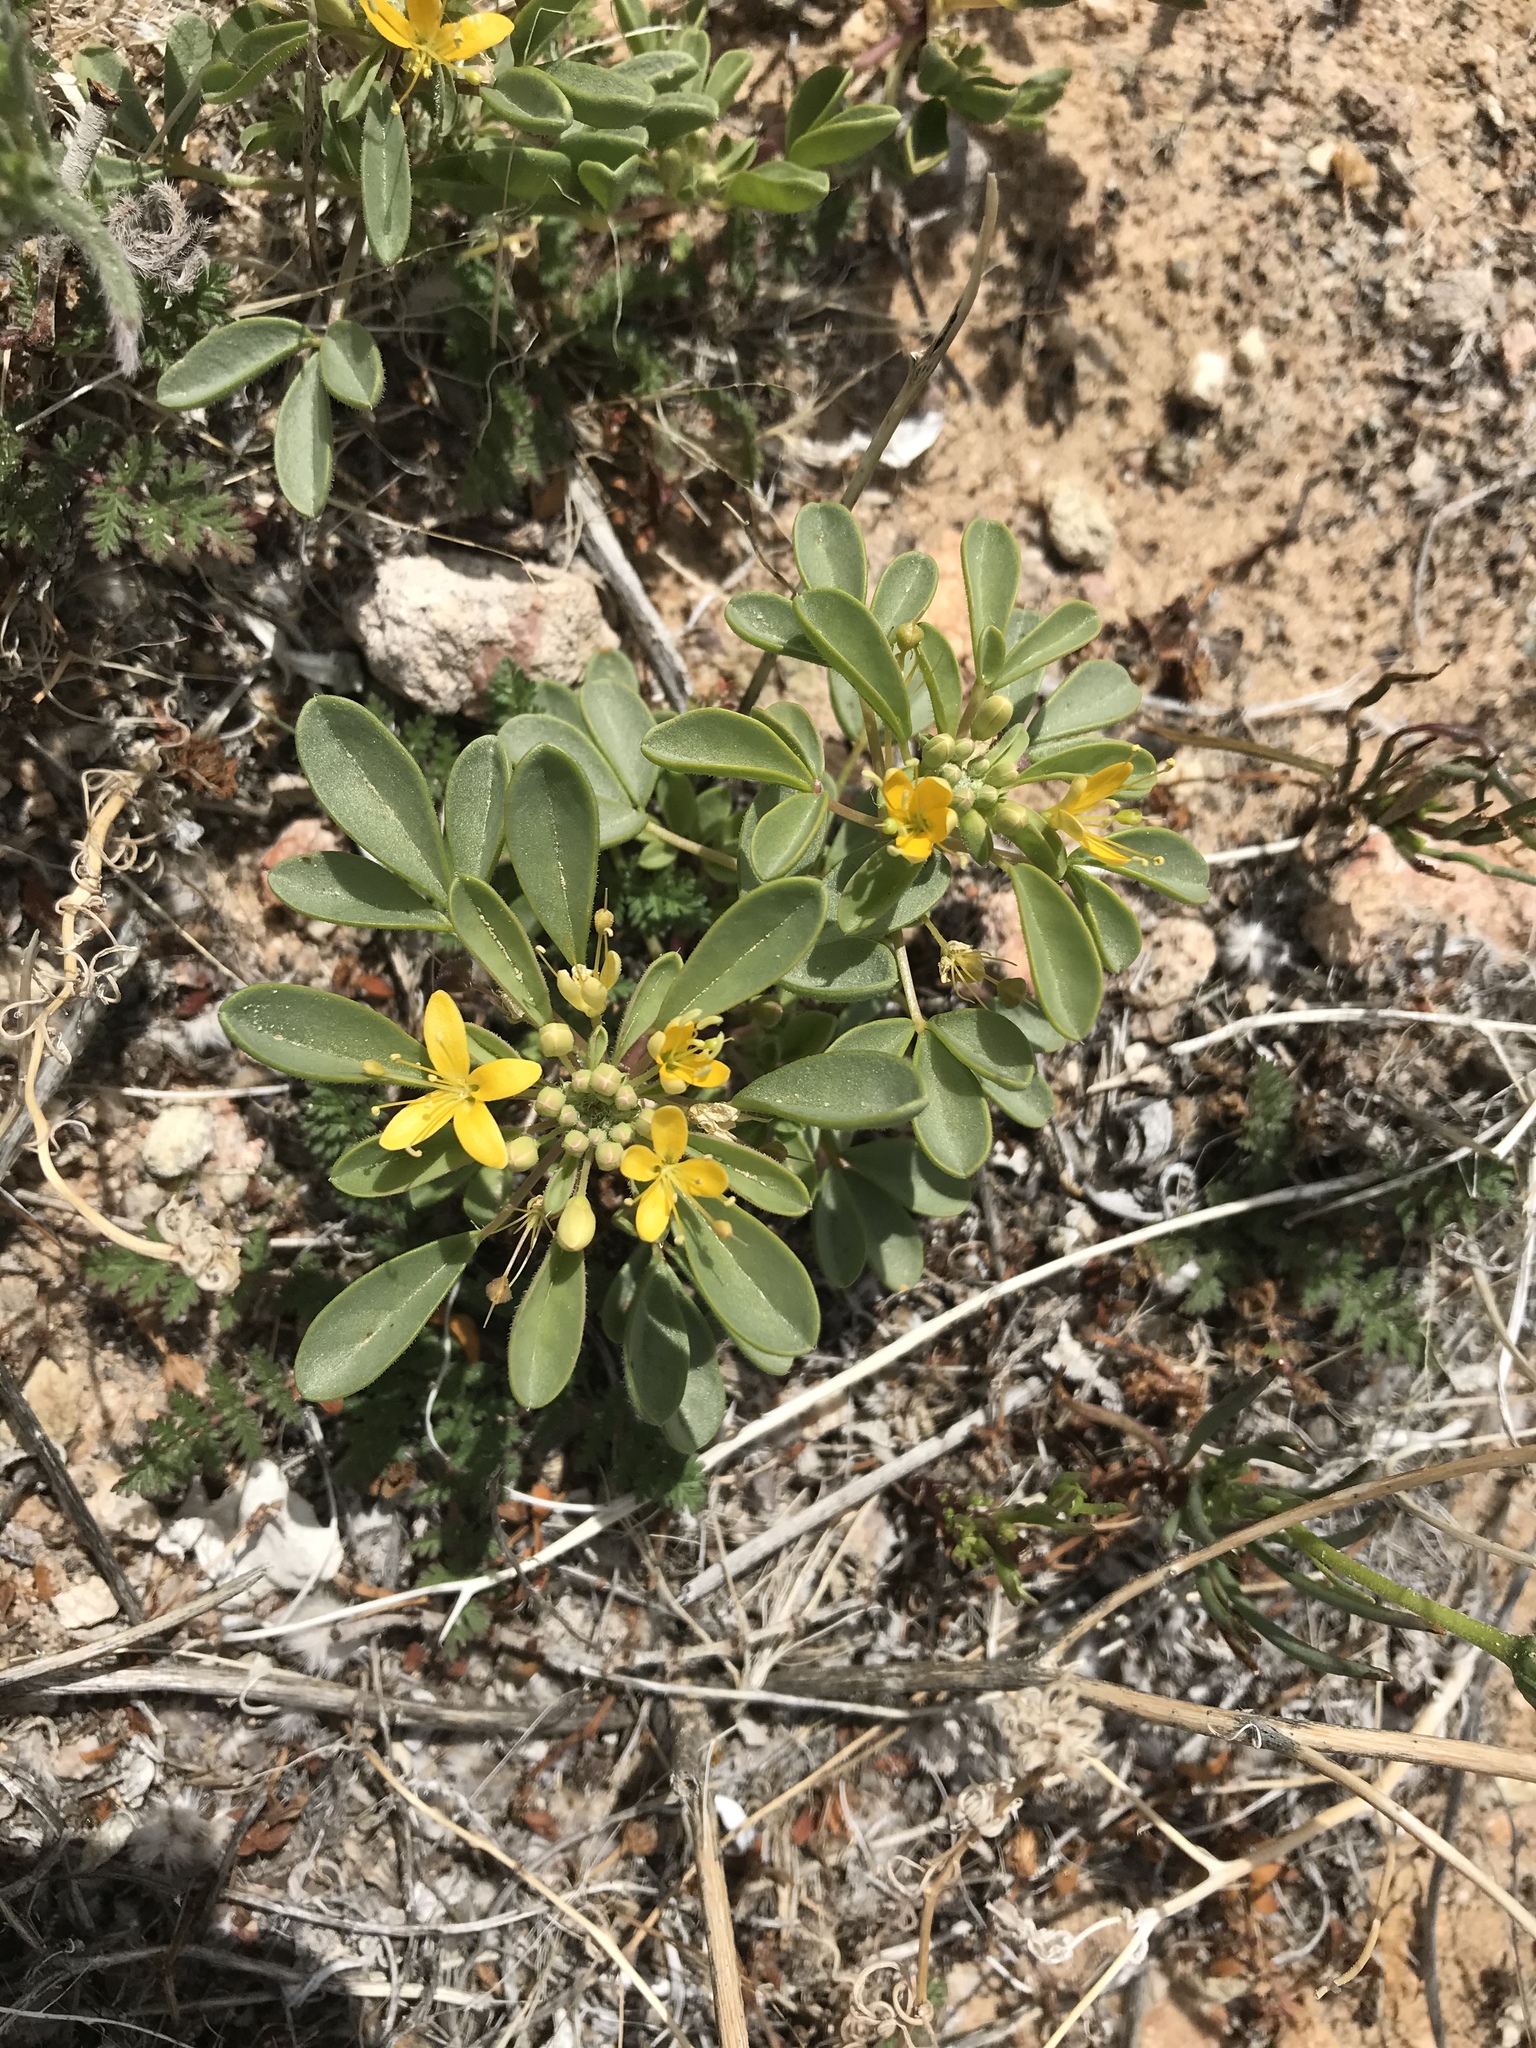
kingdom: Plantae
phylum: Tracheophyta
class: Magnoliopsida
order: Brassicales
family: Cleomaceae
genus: Cleomella
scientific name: Cleomella obtusifolia
